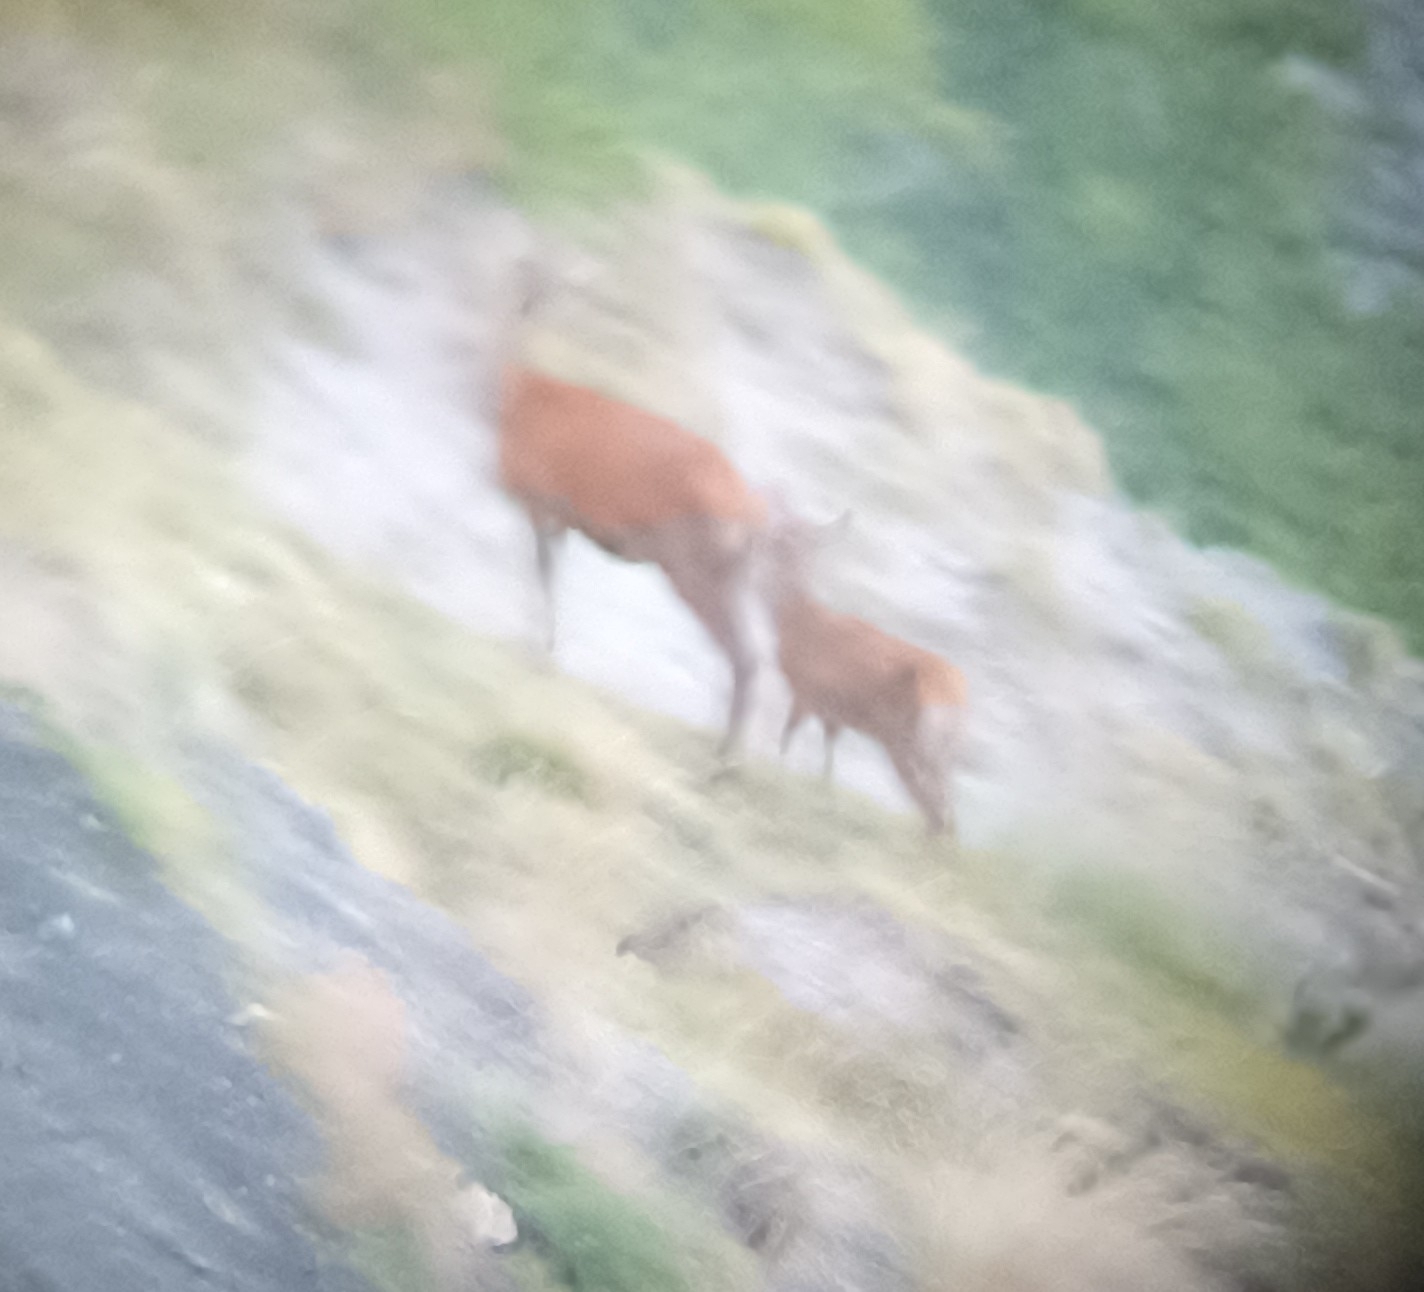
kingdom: Animalia
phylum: Chordata
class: Mammalia
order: Artiodactyla
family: Cervidae
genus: Cervus
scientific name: Cervus elaphus
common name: Red deer
